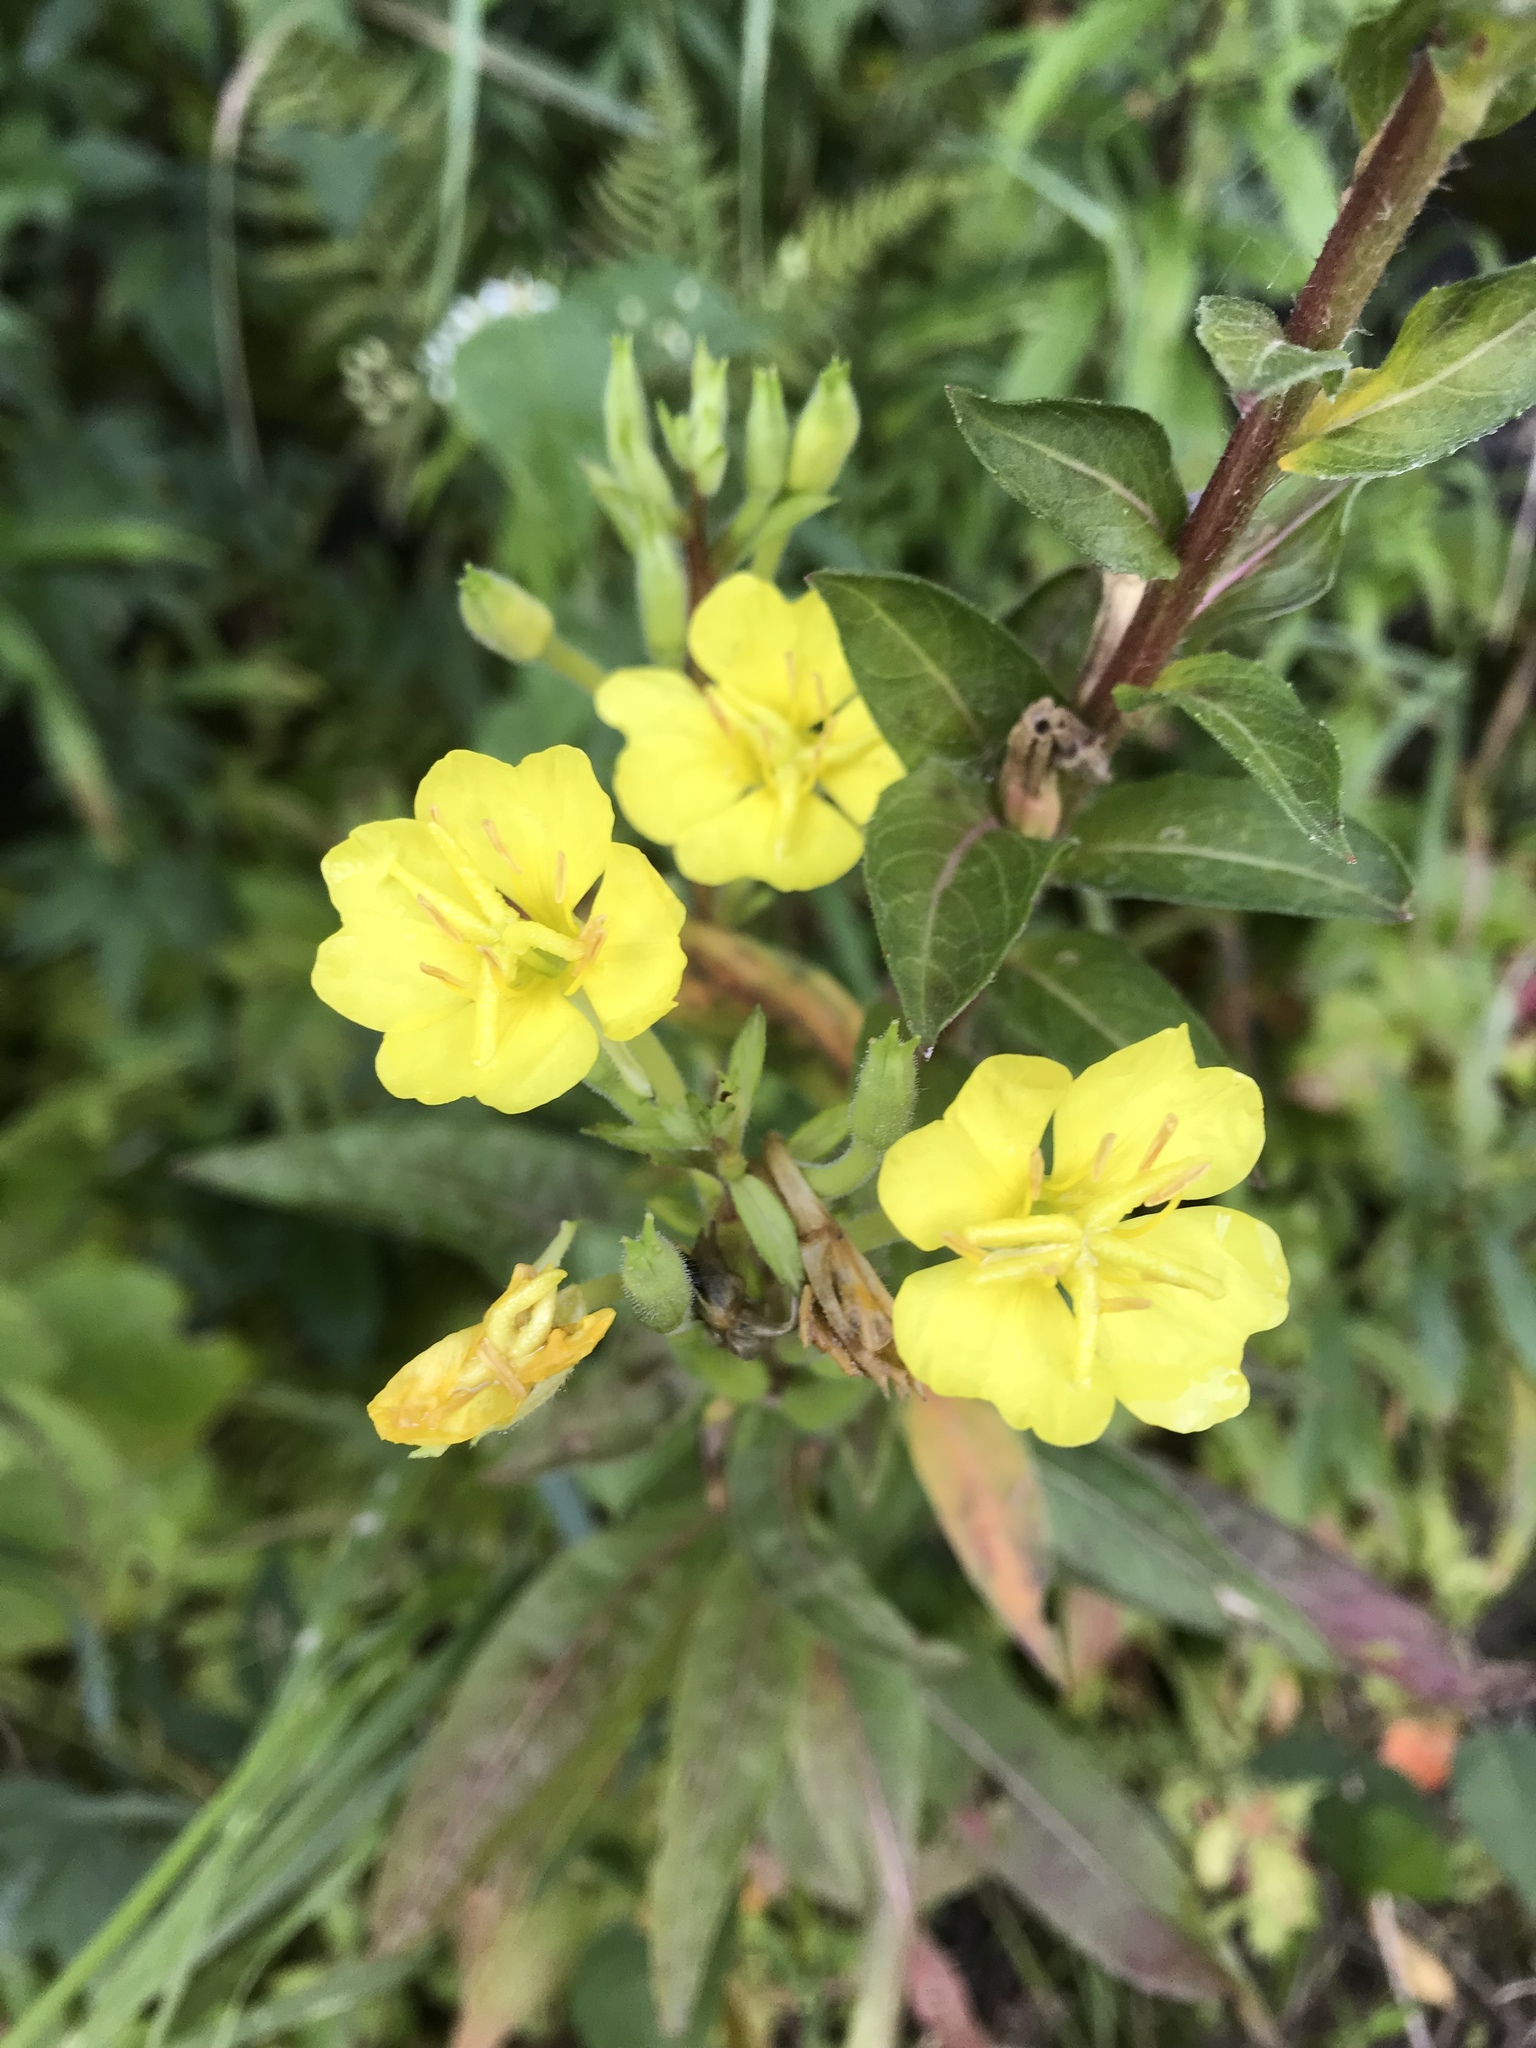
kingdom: Plantae
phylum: Tracheophyta
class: Magnoliopsida
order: Myrtales
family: Onagraceae
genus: Oenothera
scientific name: Oenothera biennis
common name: Common evening-primrose
